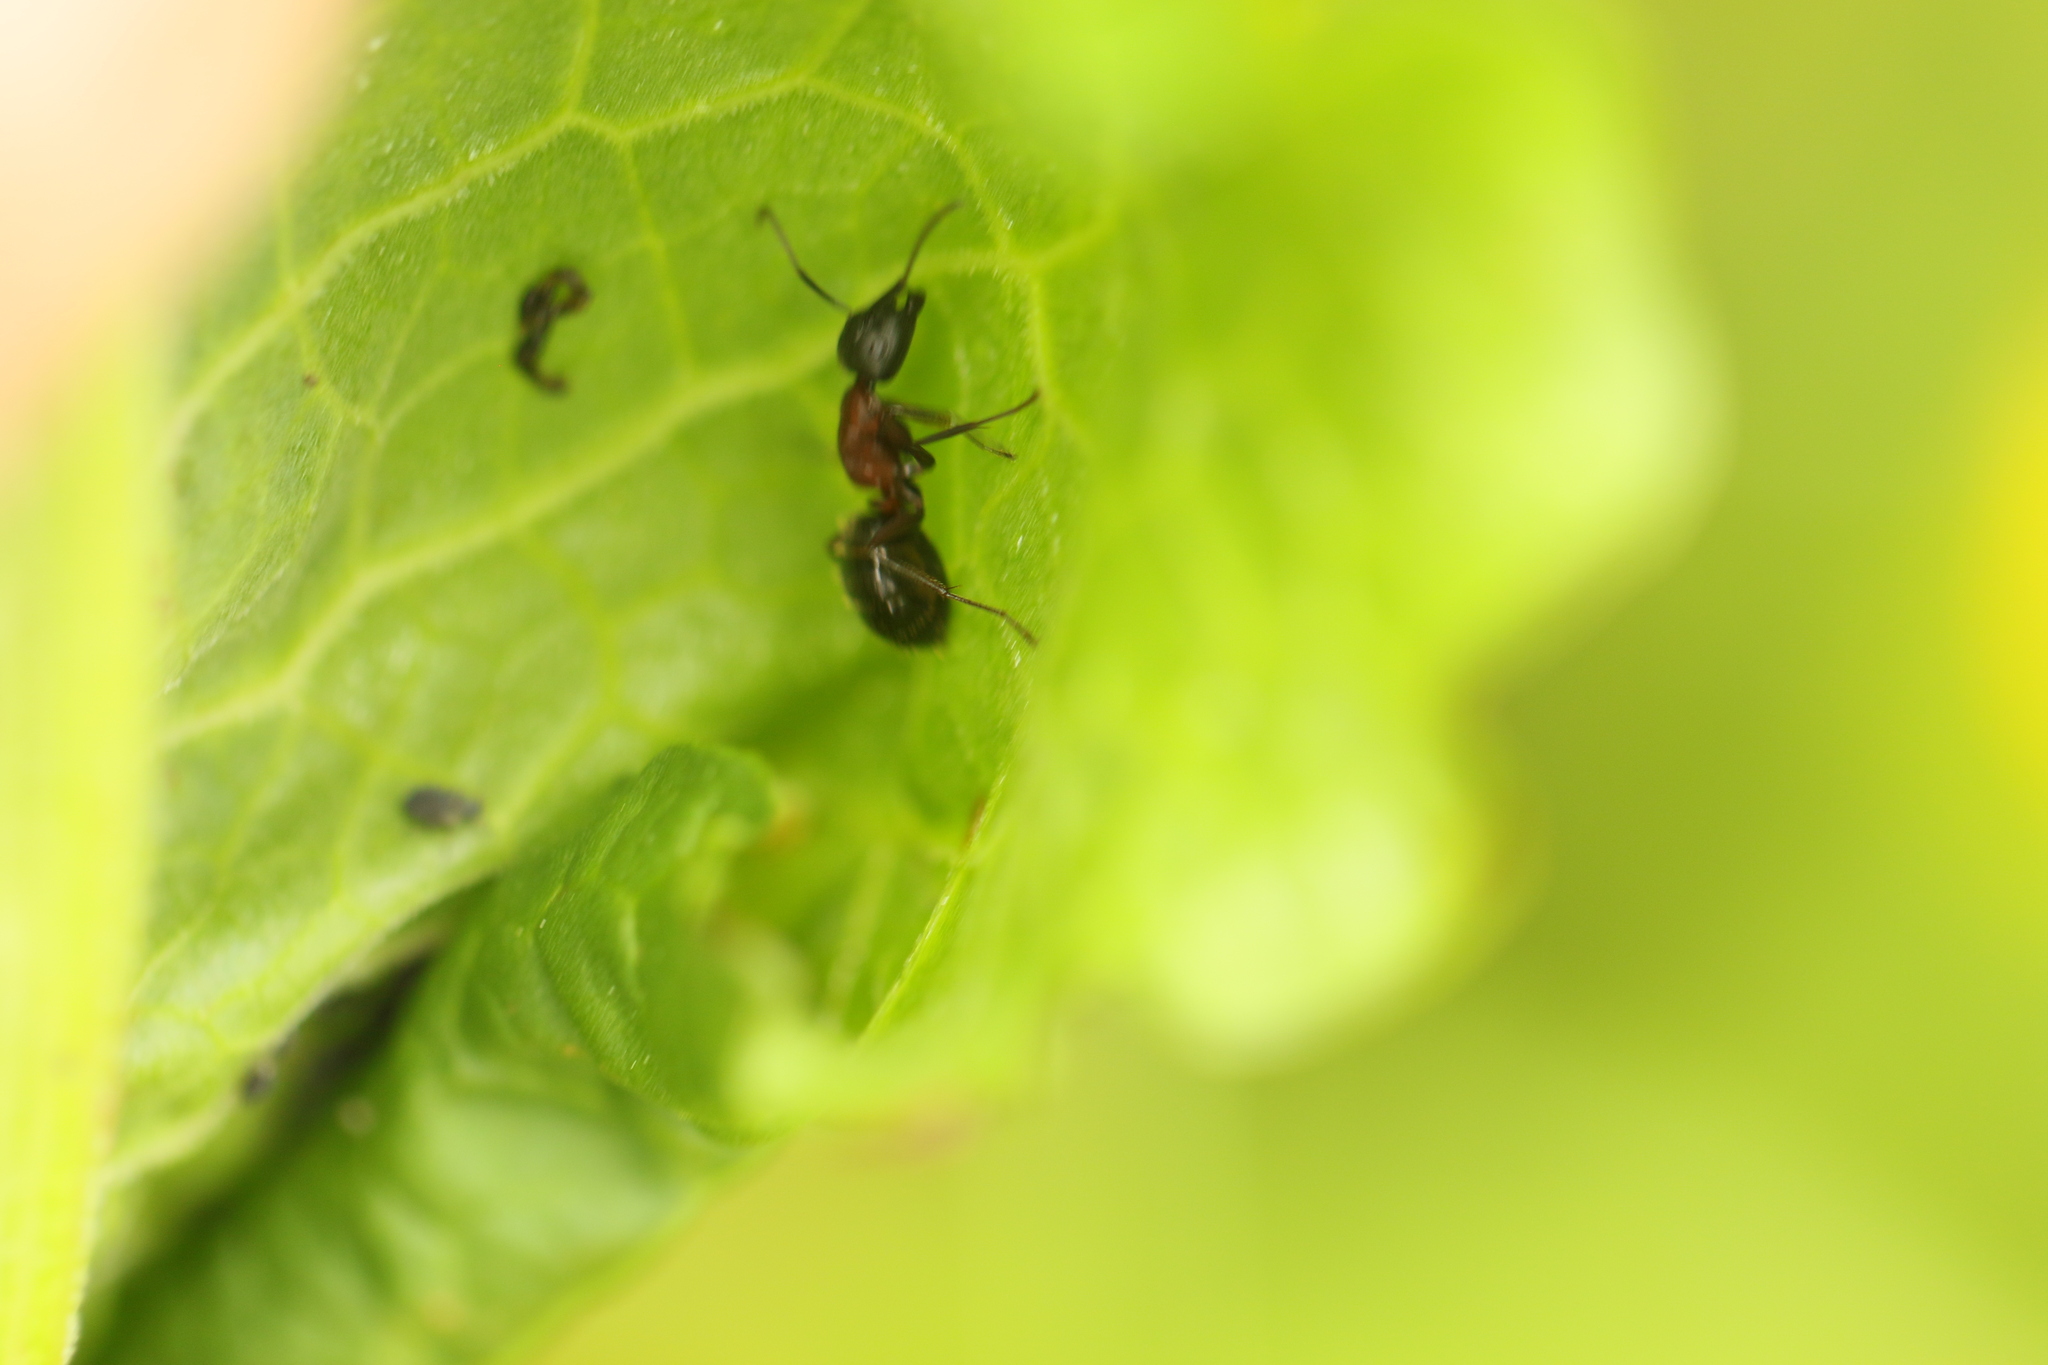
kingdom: Animalia
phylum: Arthropoda
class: Insecta
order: Hymenoptera
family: Formicidae
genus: Camponotus
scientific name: Camponotus novaeboracensis
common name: New york carpenter ant
